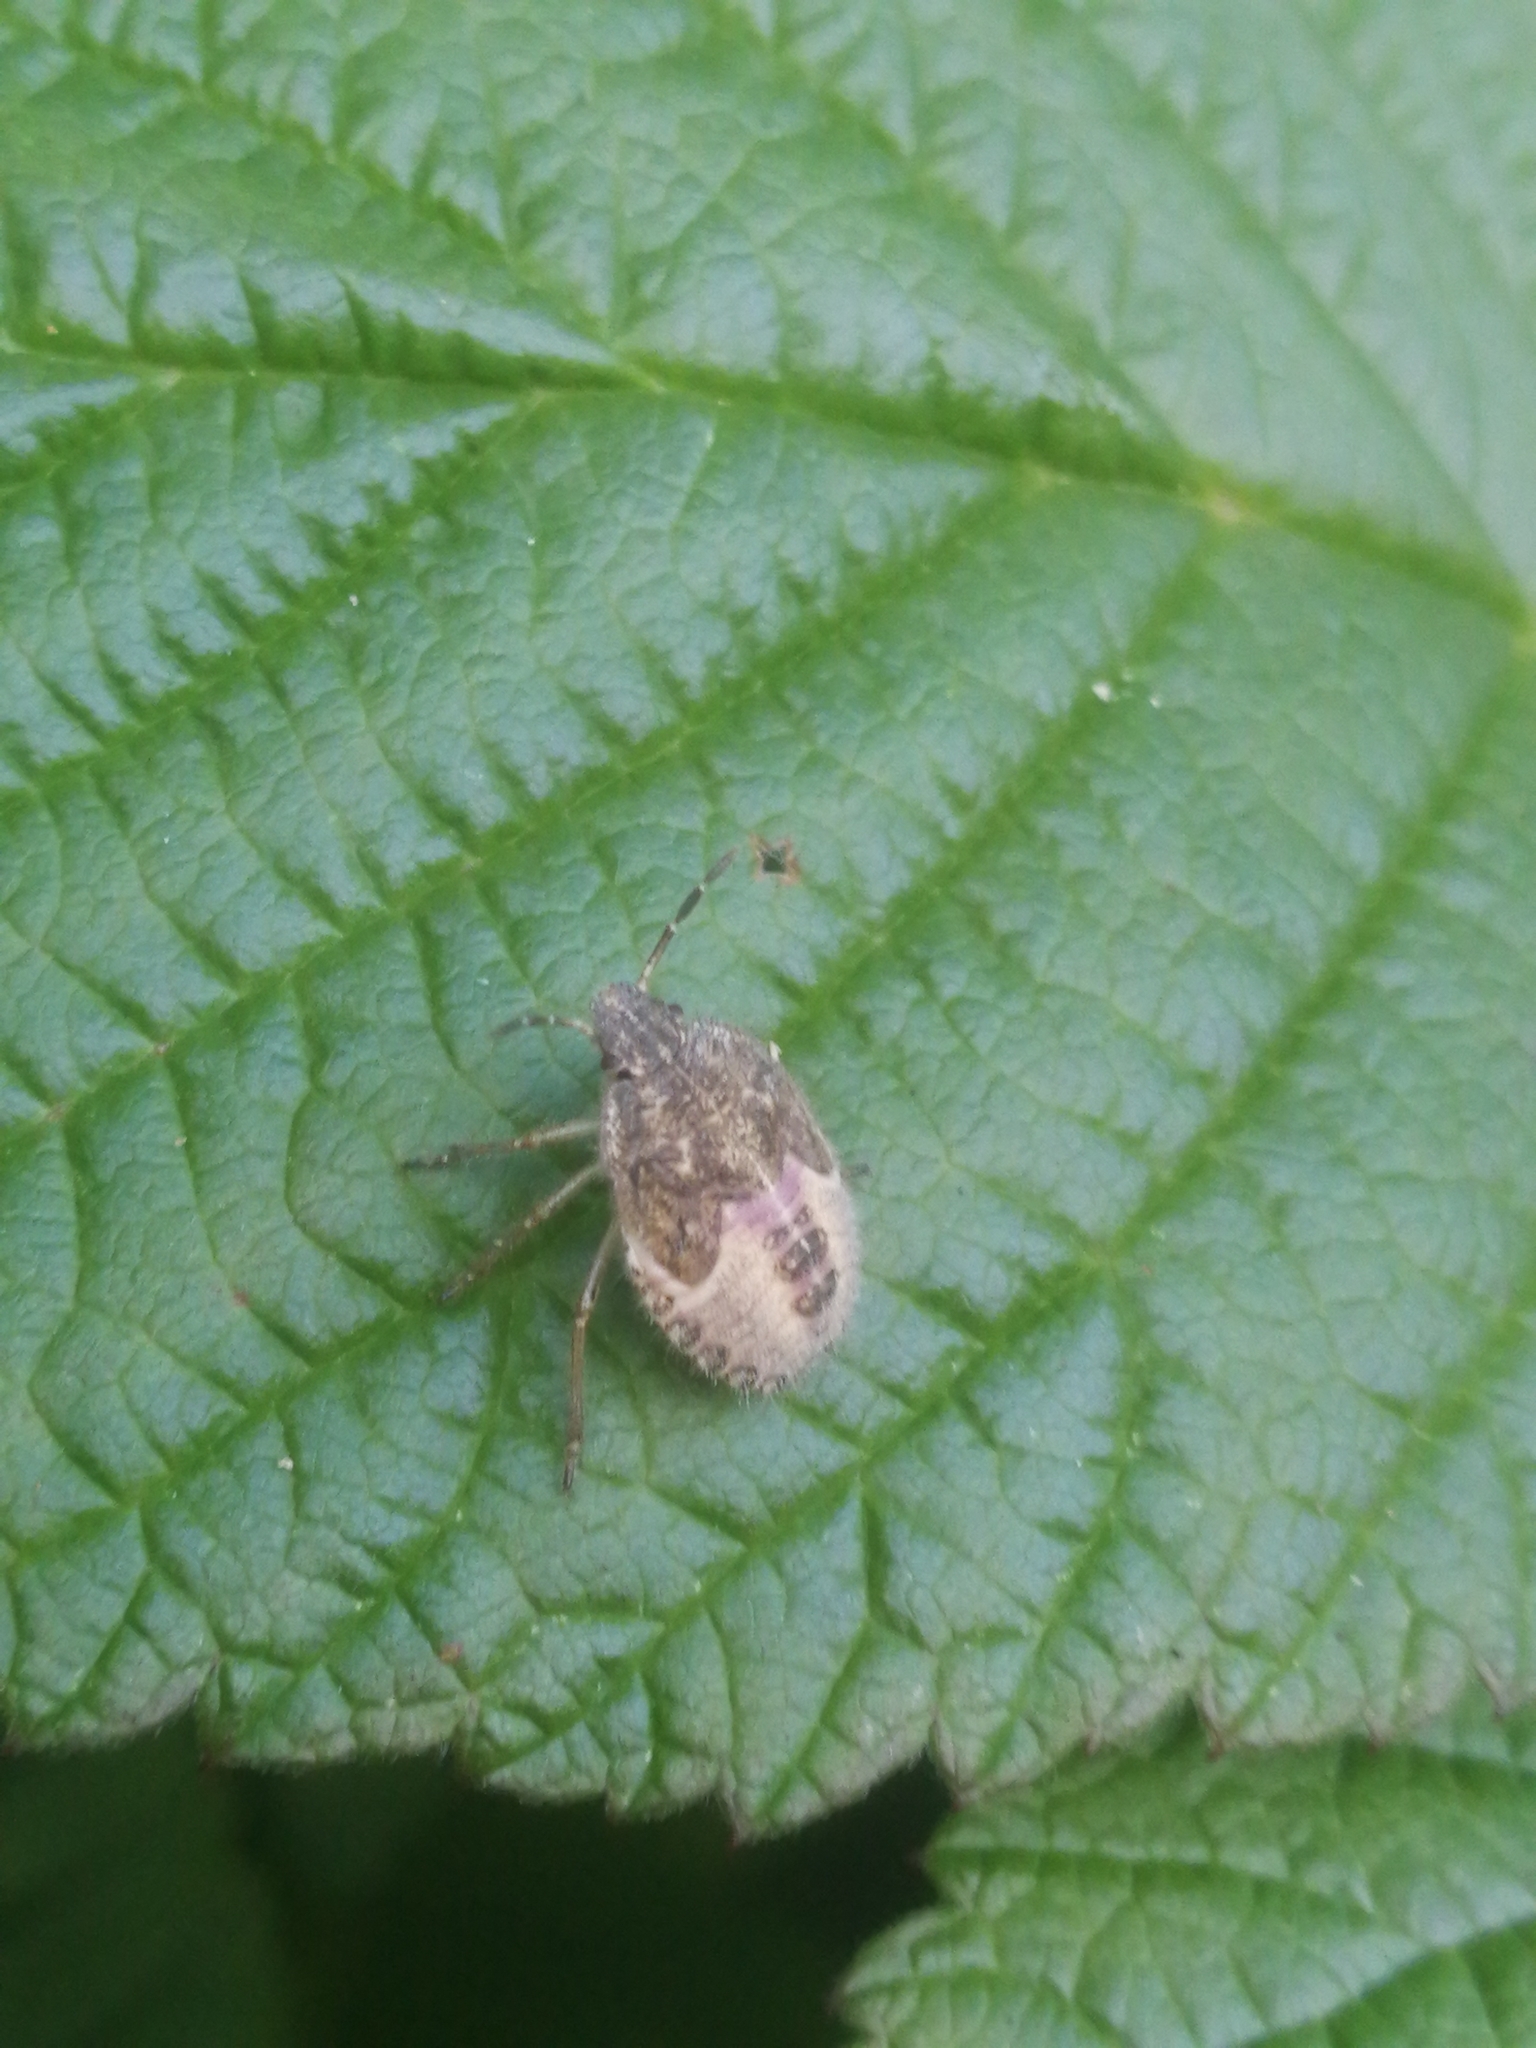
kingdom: Animalia
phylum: Arthropoda
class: Insecta
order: Hemiptera
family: Pentatomidae
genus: Dolycoris
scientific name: Dolycoris baccarum
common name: Sloe bug
